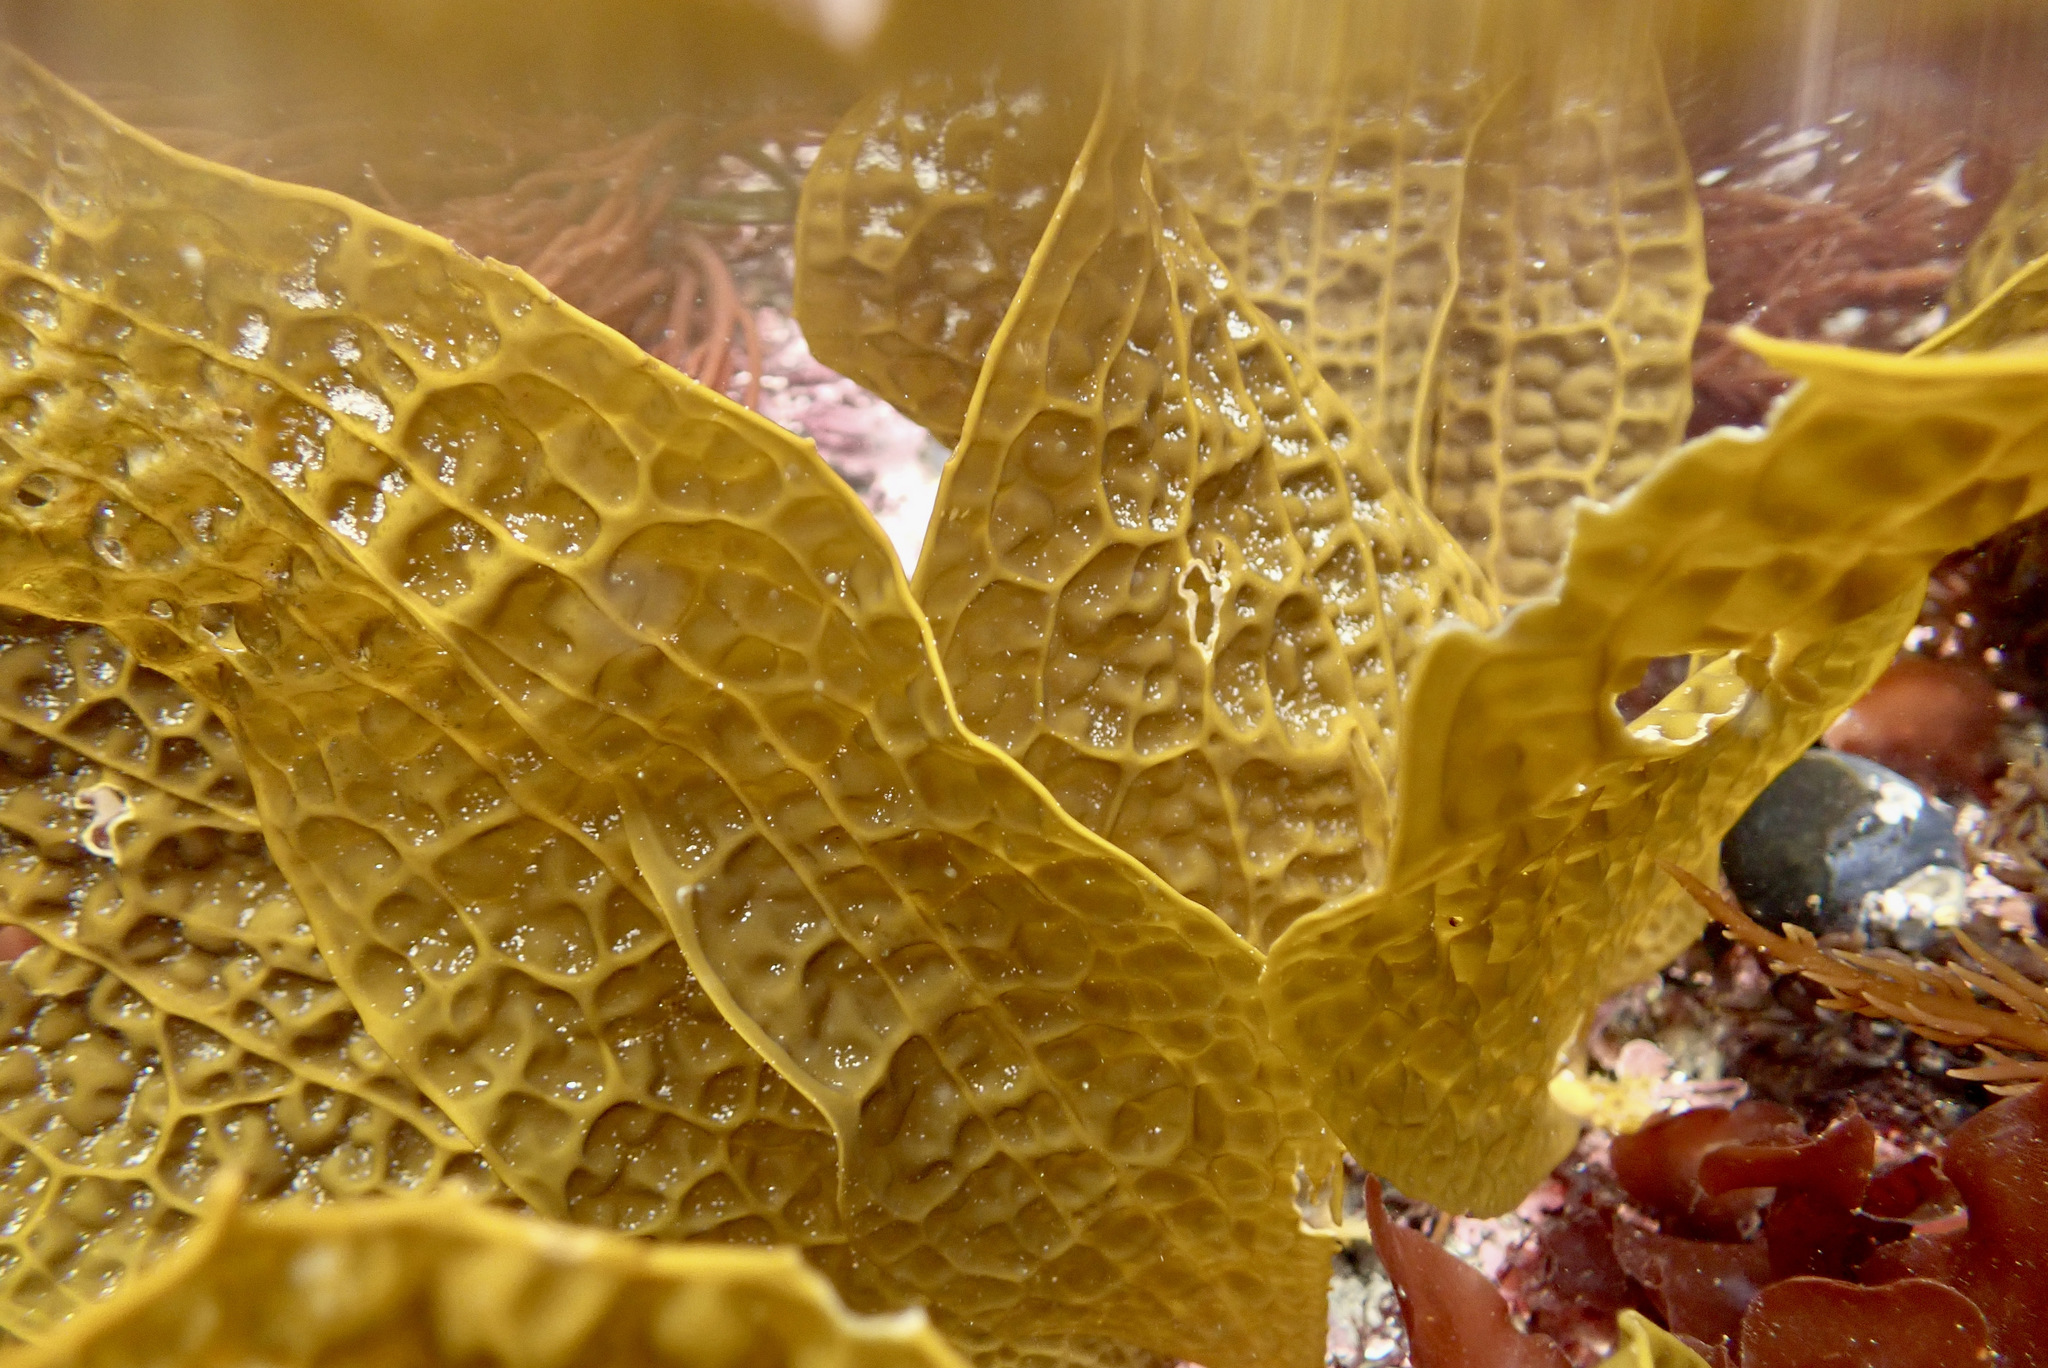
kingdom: Chromista
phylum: Ochrophyta
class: Phaeophyceae
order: Laminariales
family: Costariaceae
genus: Dictyoneurum
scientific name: Dictyoneurum californicum
